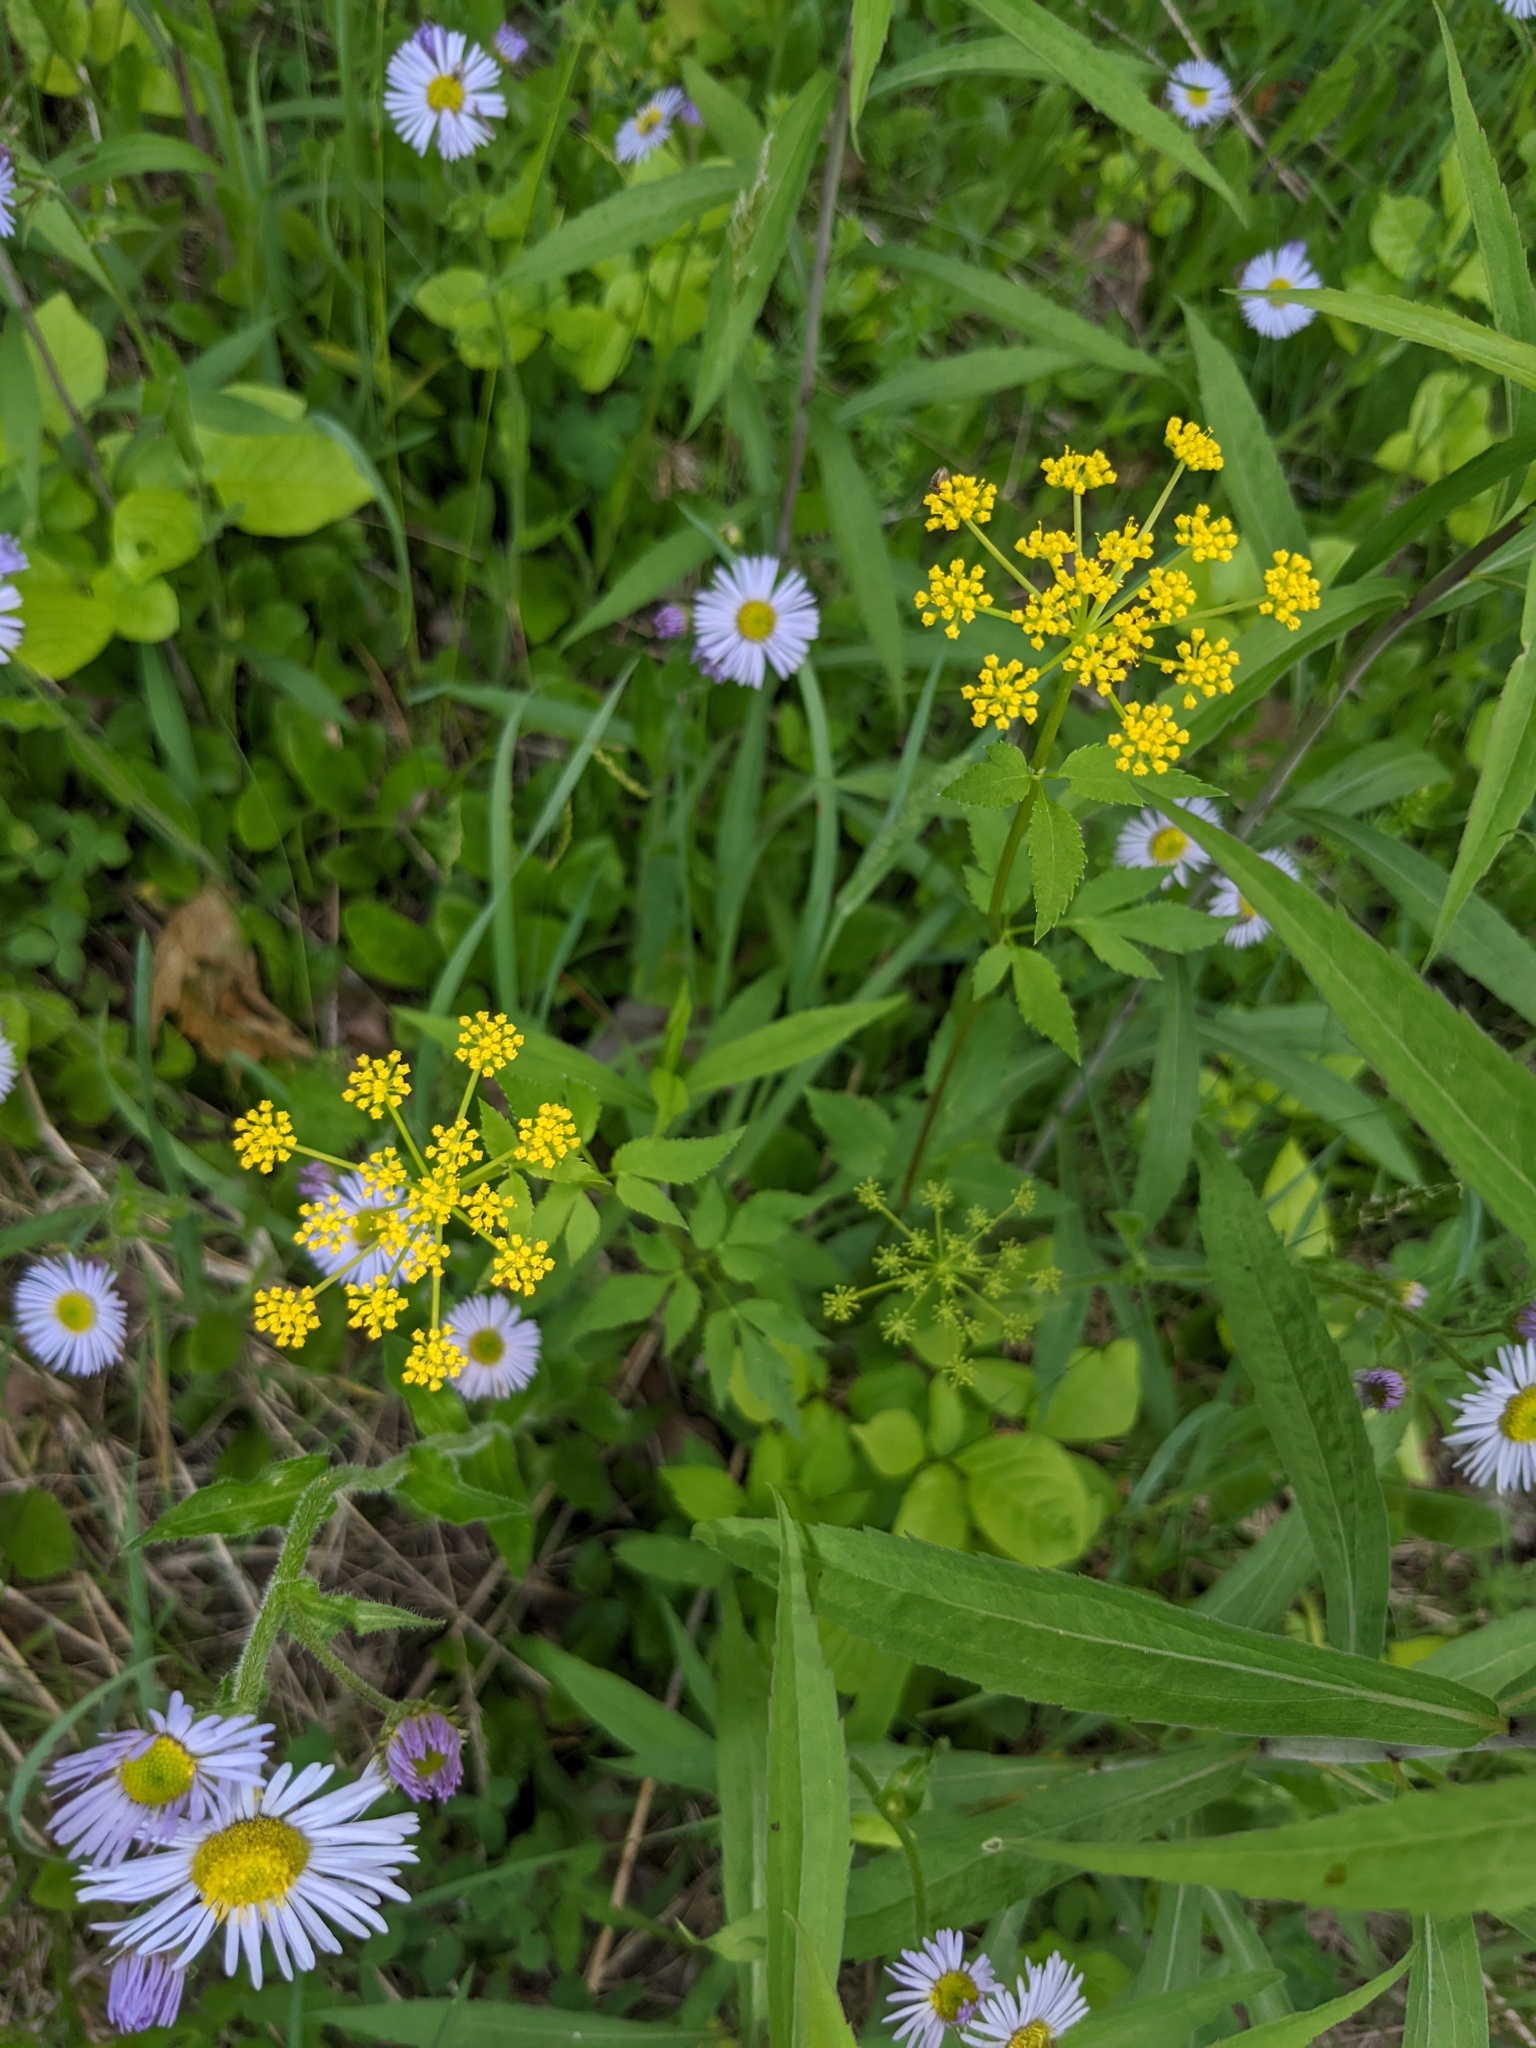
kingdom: Plantae
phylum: Tracheophyta
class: Magnoliopsida
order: Apiales
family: Apiaceae
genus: Zizia
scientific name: Zizia aurea
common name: Golden alexanders
